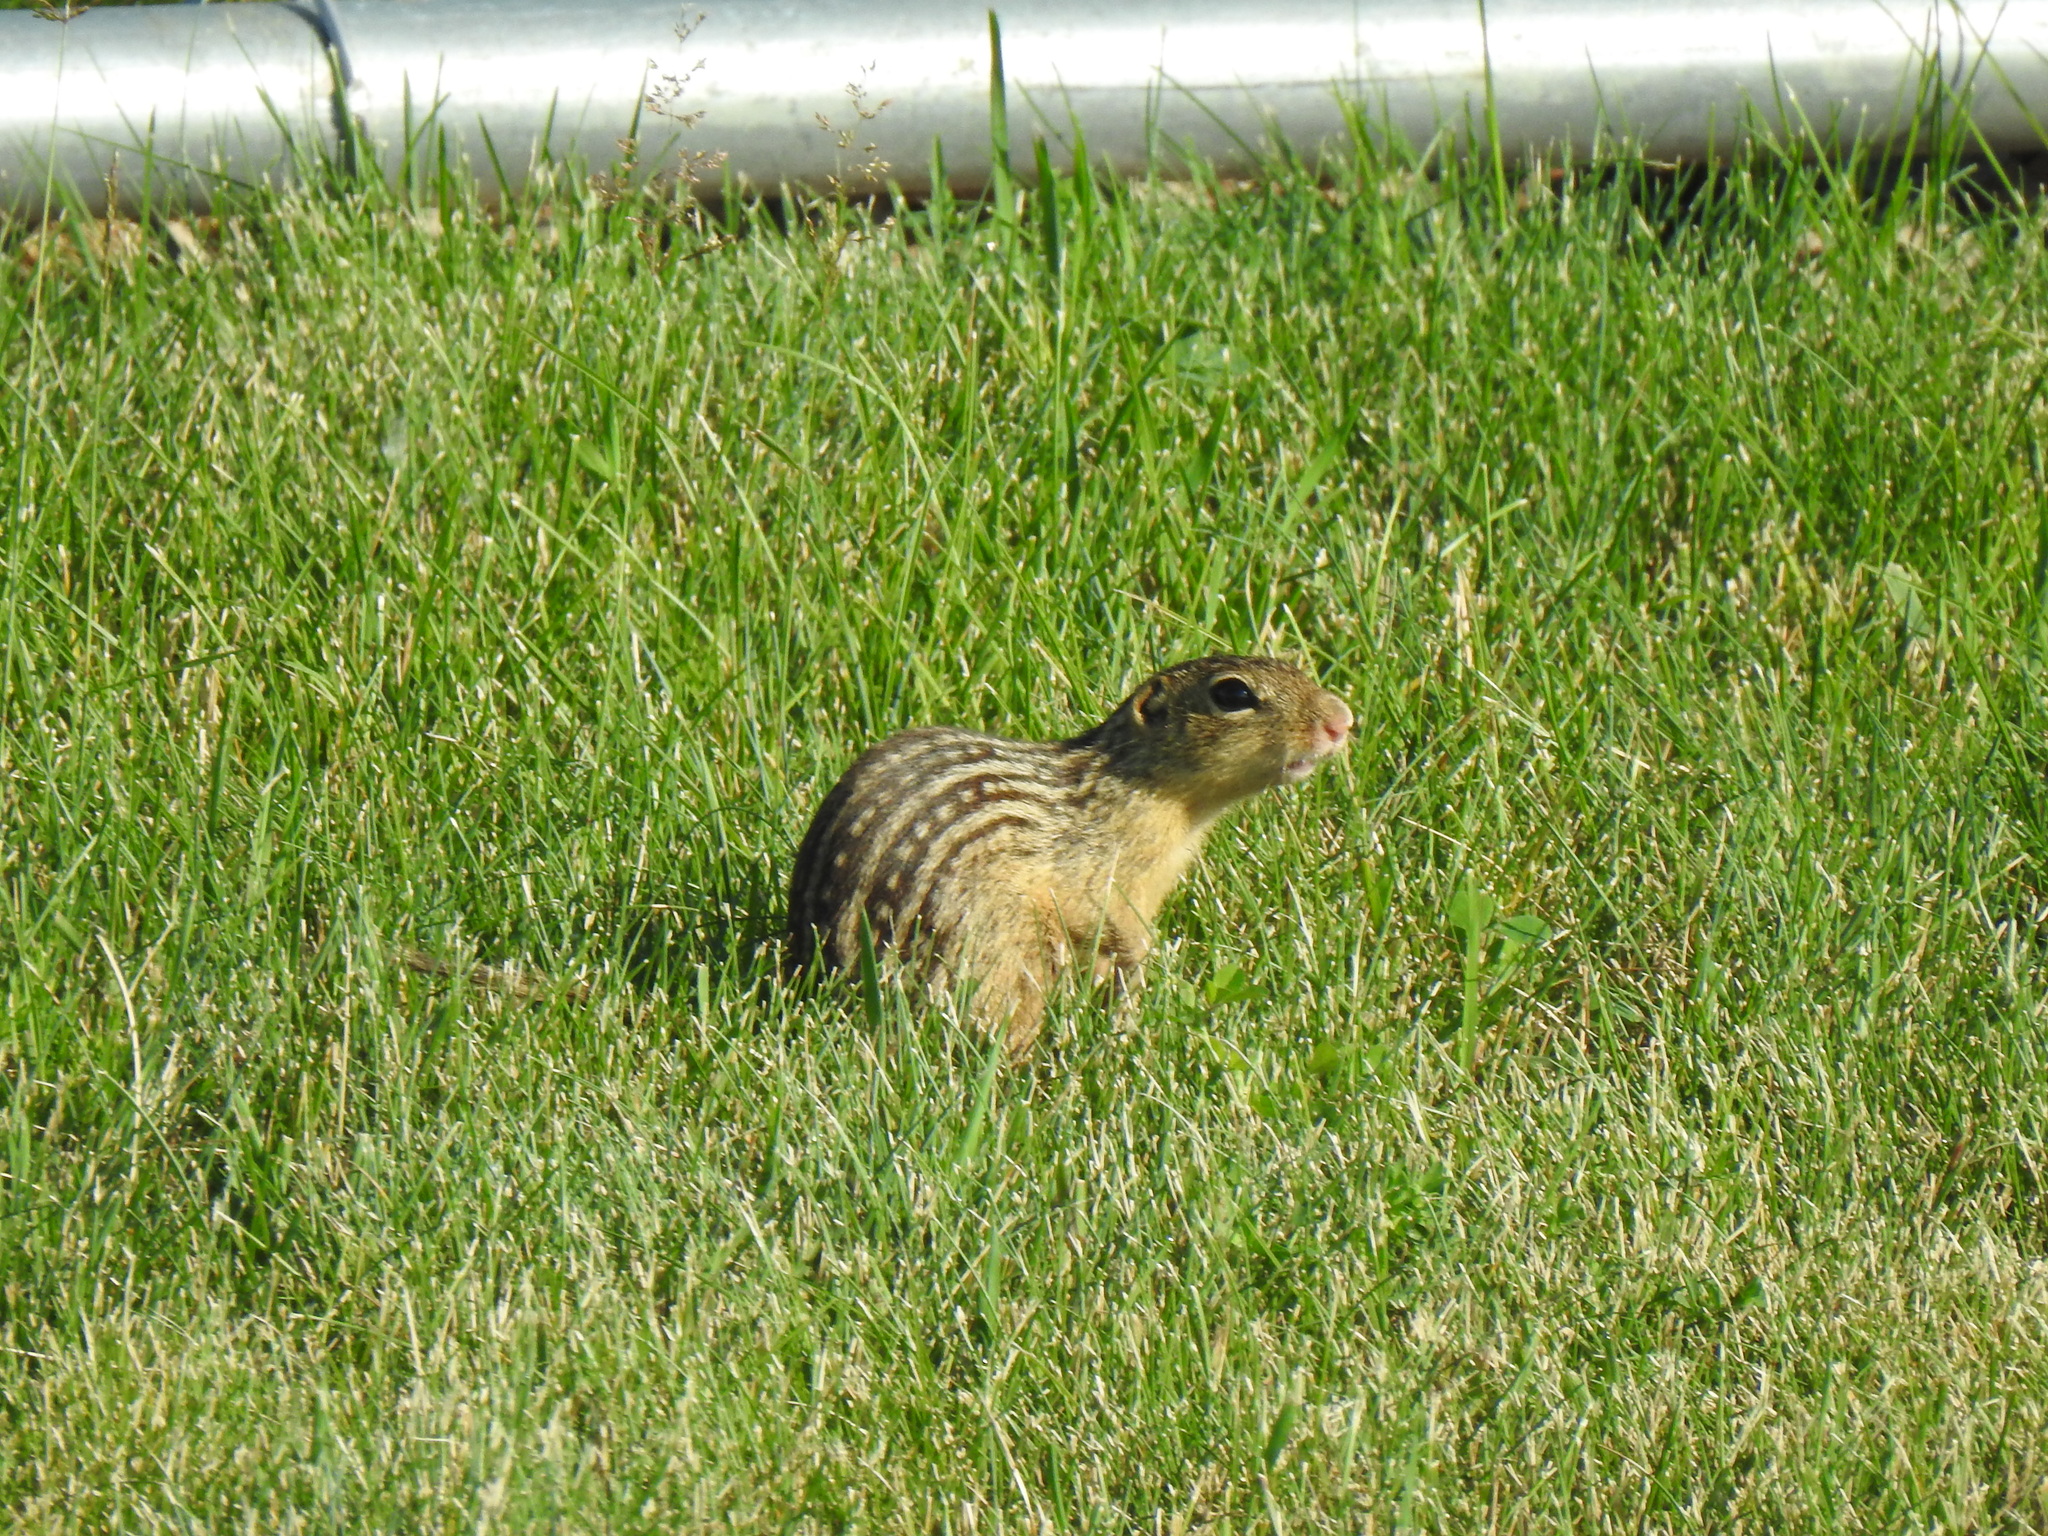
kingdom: Animalia
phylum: Chordata
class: Mammalia
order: Rodentia
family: Sciuridae
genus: Ictidomys
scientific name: Ictidomys tridecemlineatus
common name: Thirteen-lined ground squirrel
